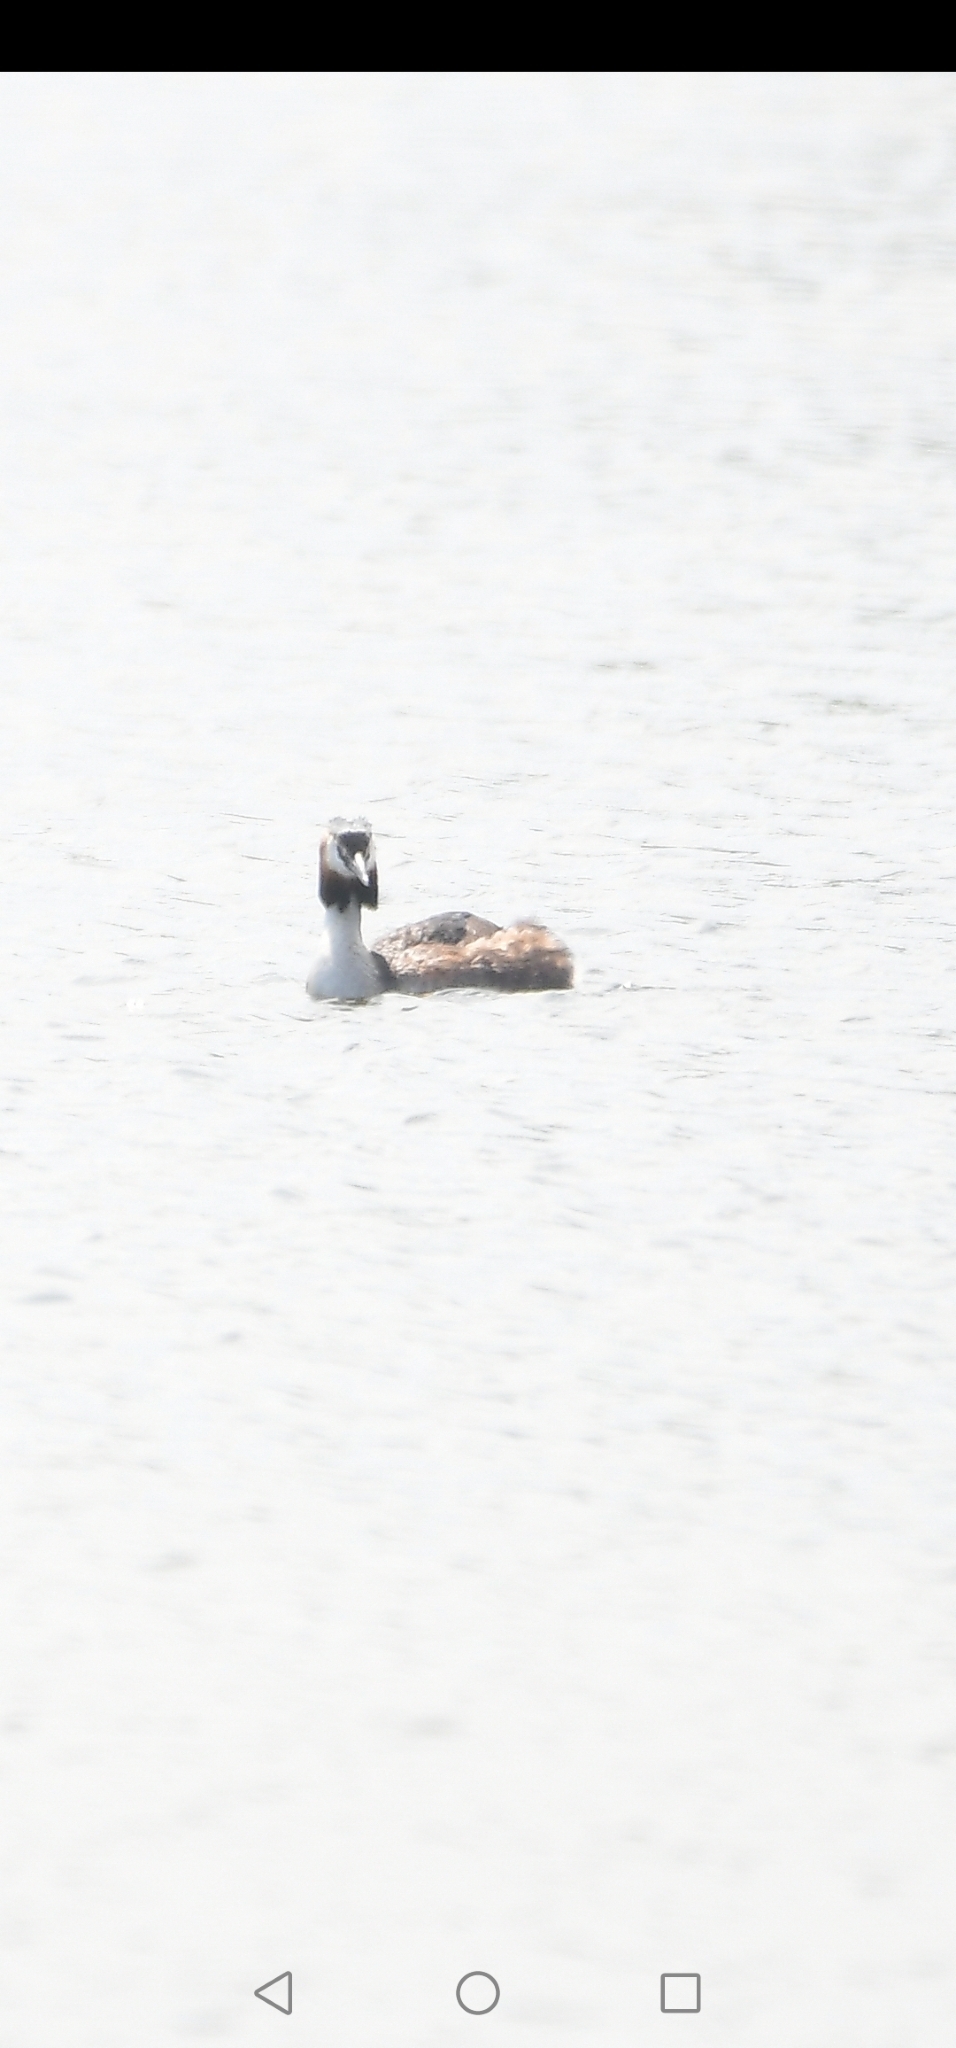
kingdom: Animalia
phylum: Chordata
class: Aves
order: Podicipediformes
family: Podicipedidae
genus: Podiceps
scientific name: Podiceps cristatus
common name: Great crested grebe
